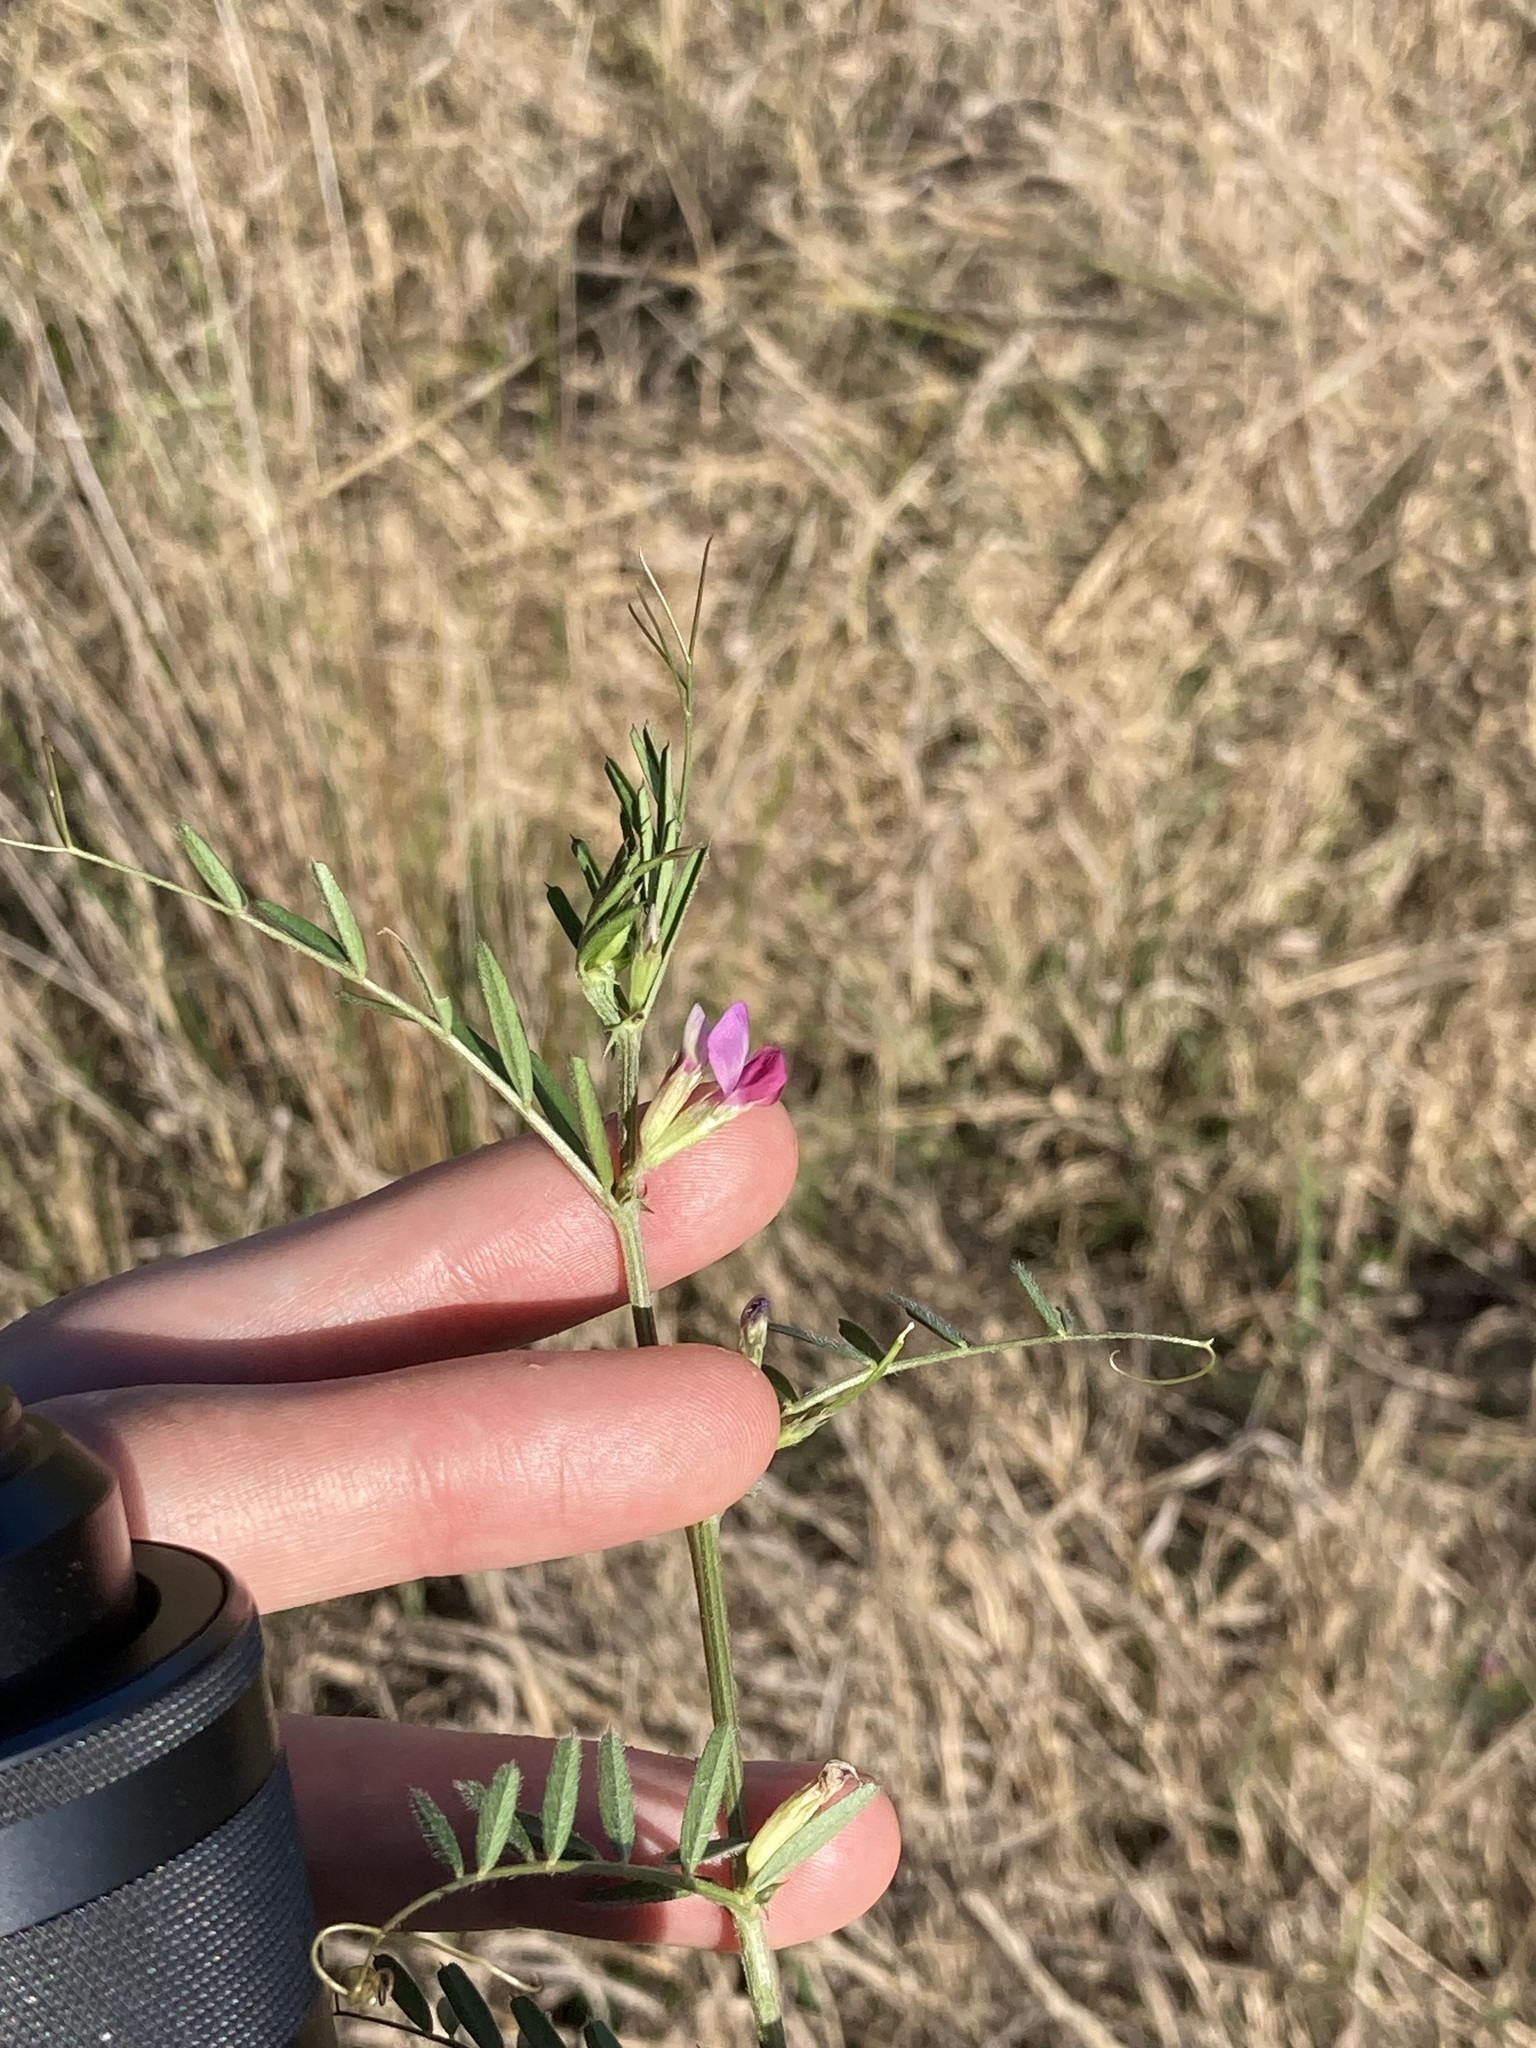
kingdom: Plantae
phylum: Tracheophyta
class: Magnoliopsida
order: Fabales
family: Fabaceae
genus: Vicia
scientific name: Vicia sativa
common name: Garden vetch
